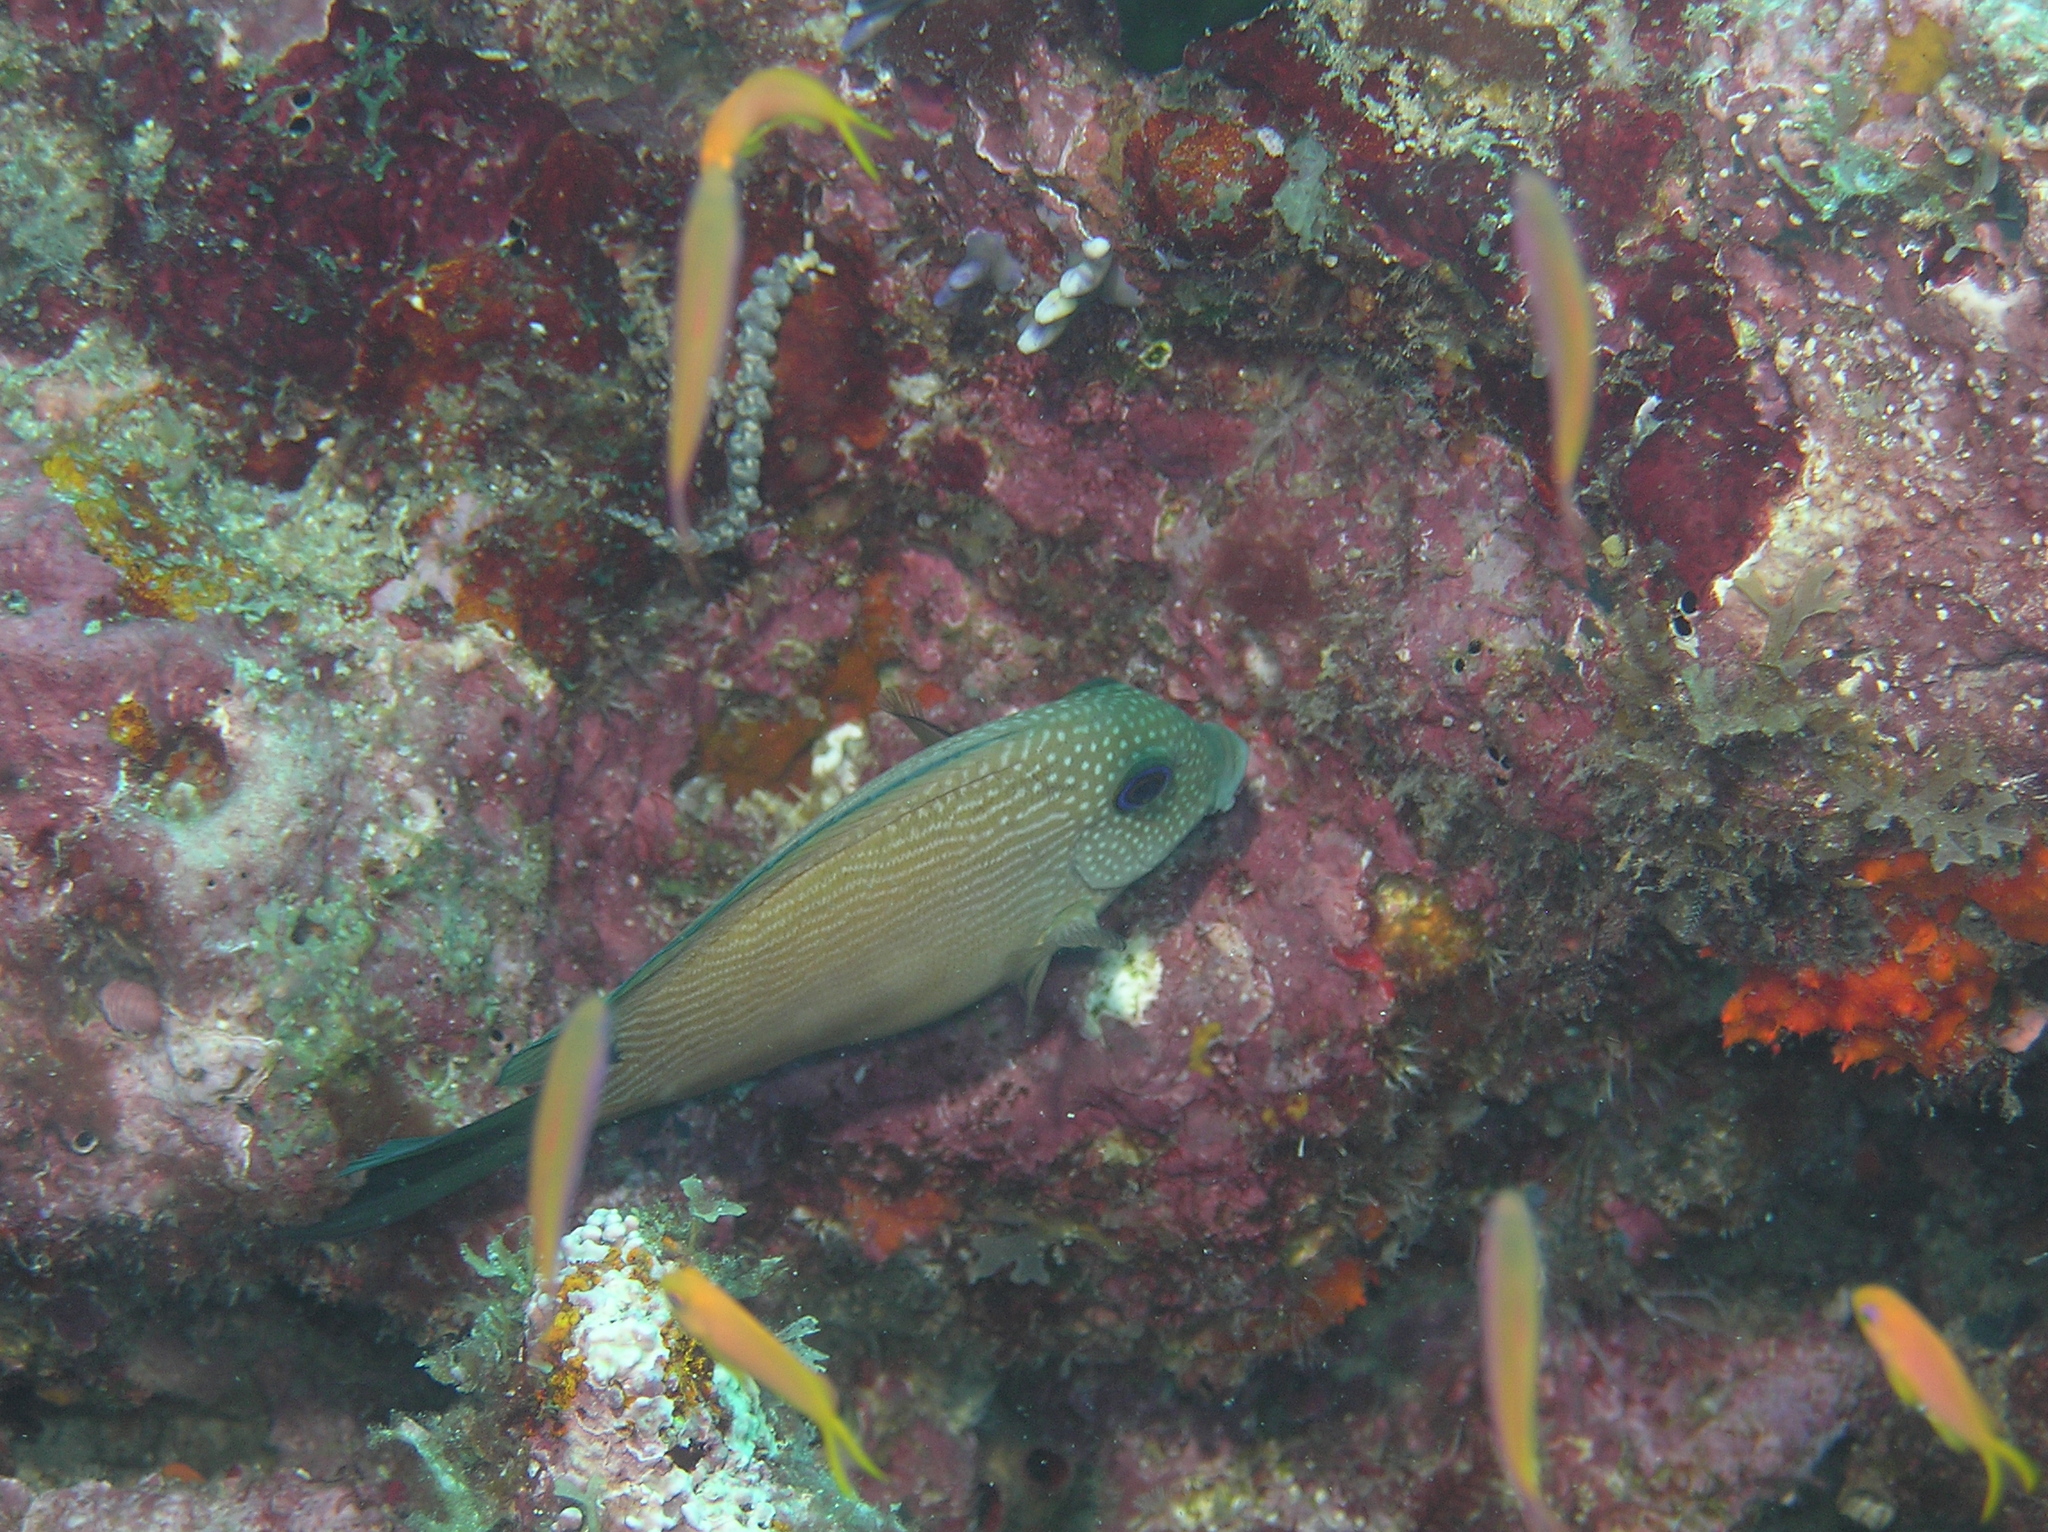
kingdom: Animalia
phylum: Chordata
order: Perciformes
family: Acanthuridae
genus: Ctenochaetus
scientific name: Ctenochaetus binotatus
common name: Two-spot bristletooth
